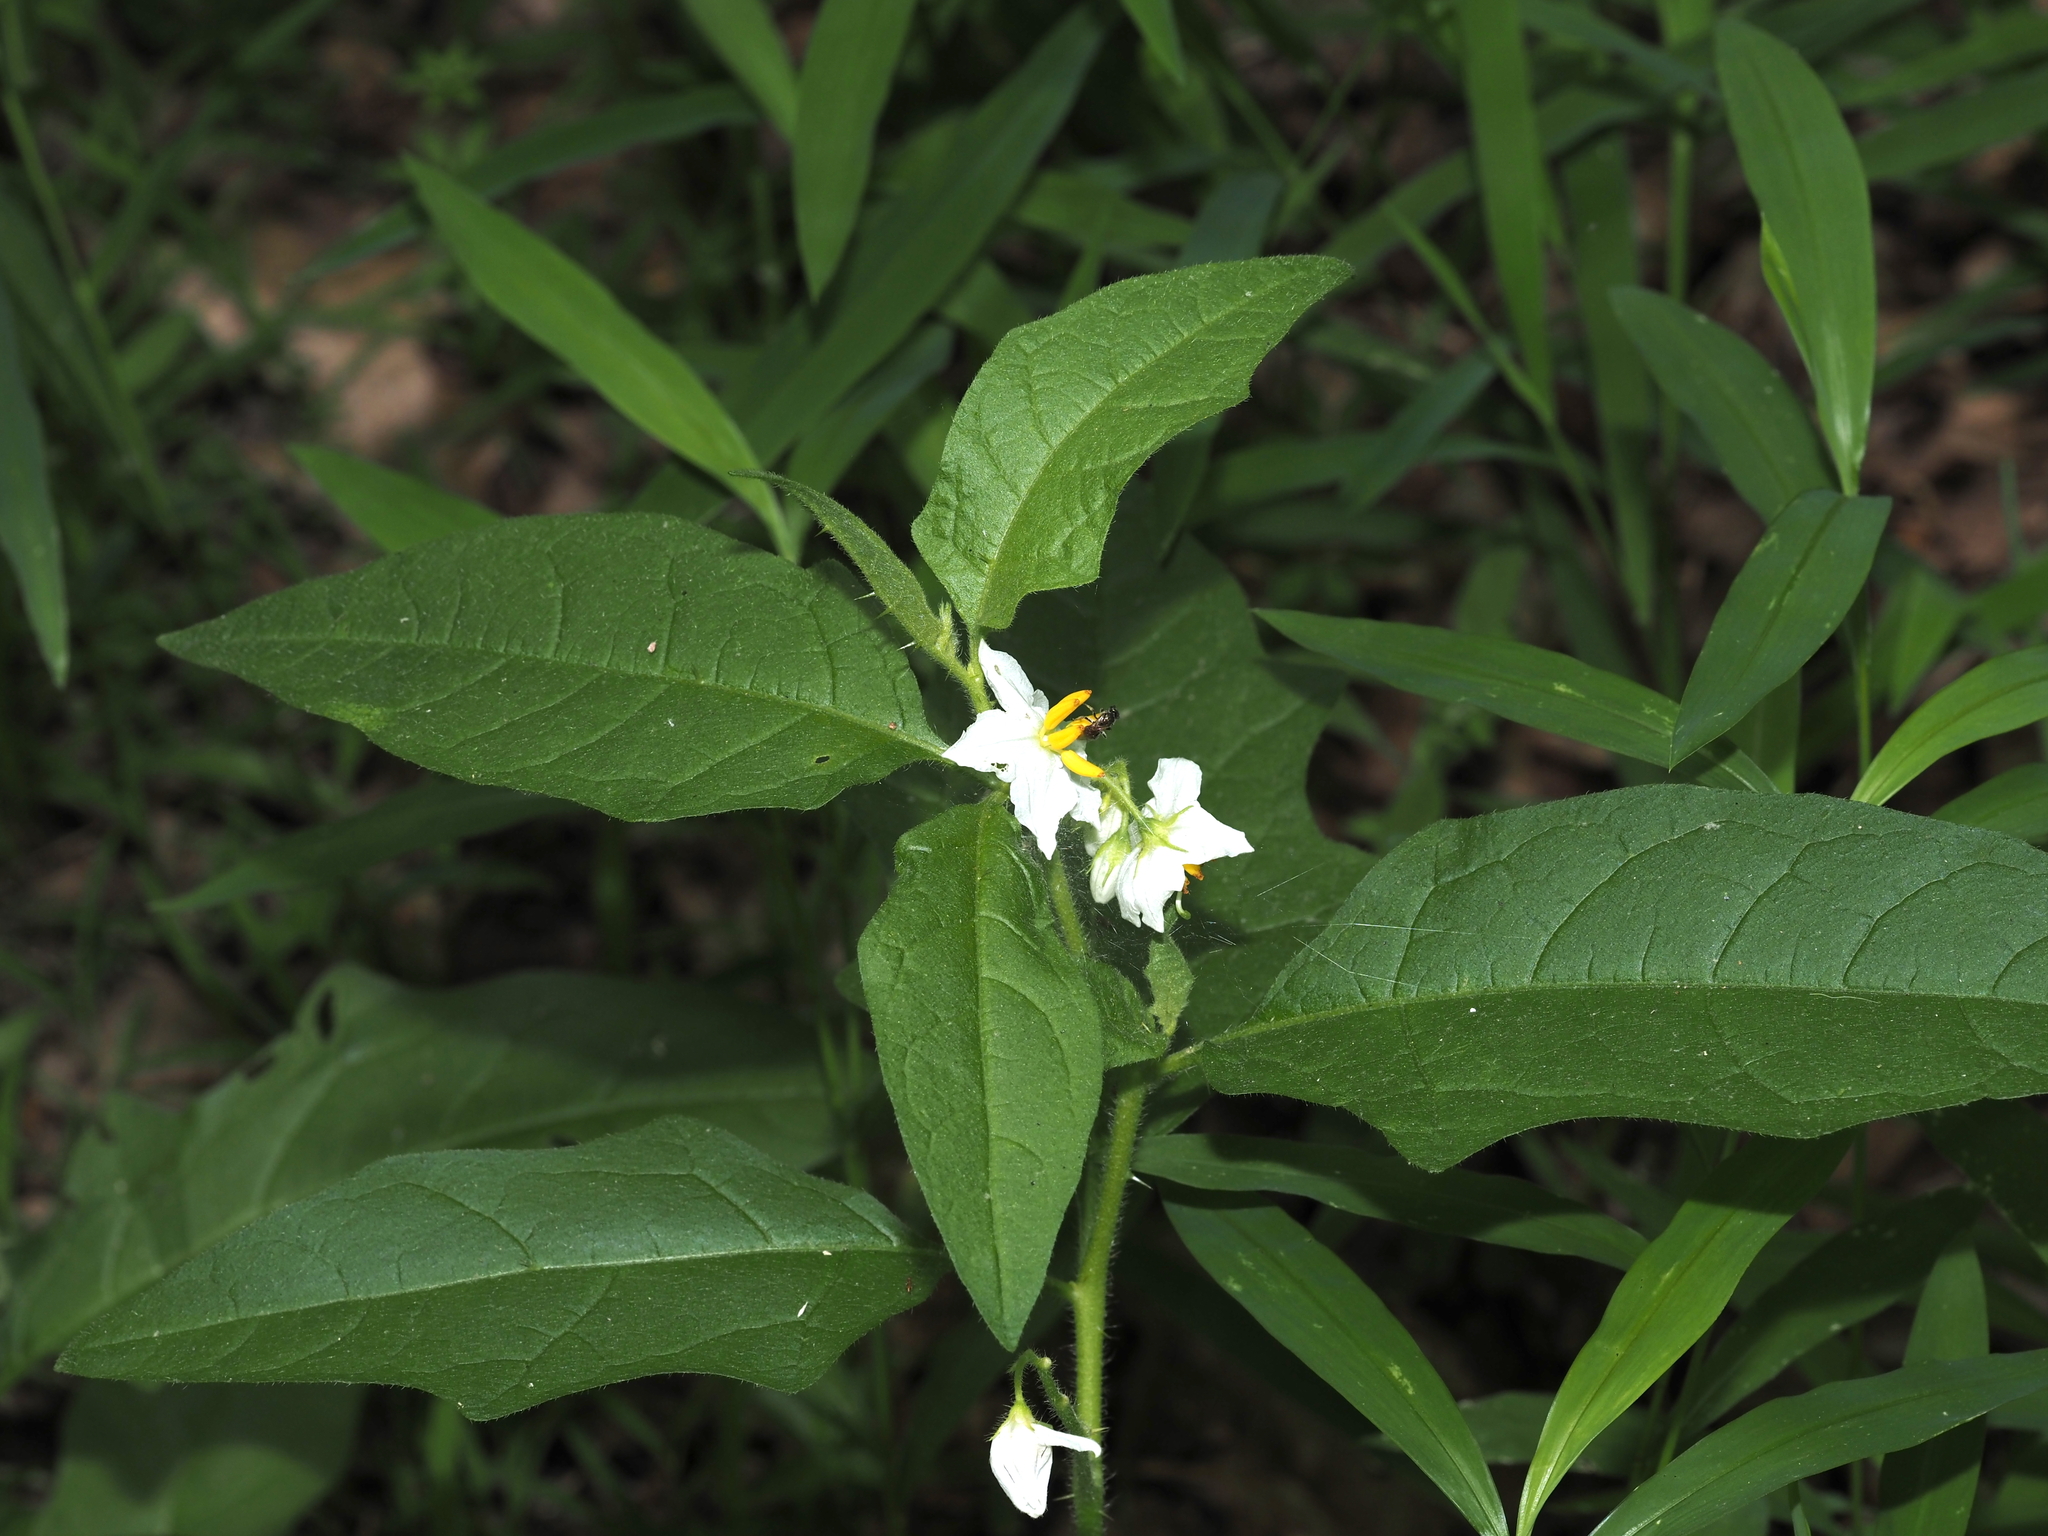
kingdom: Plantae
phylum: Tracheophyta
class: Magnoliopsida
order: Solanales
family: Solanaceae
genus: Solanum
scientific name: Solanum carolinense
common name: Horse-nettle
